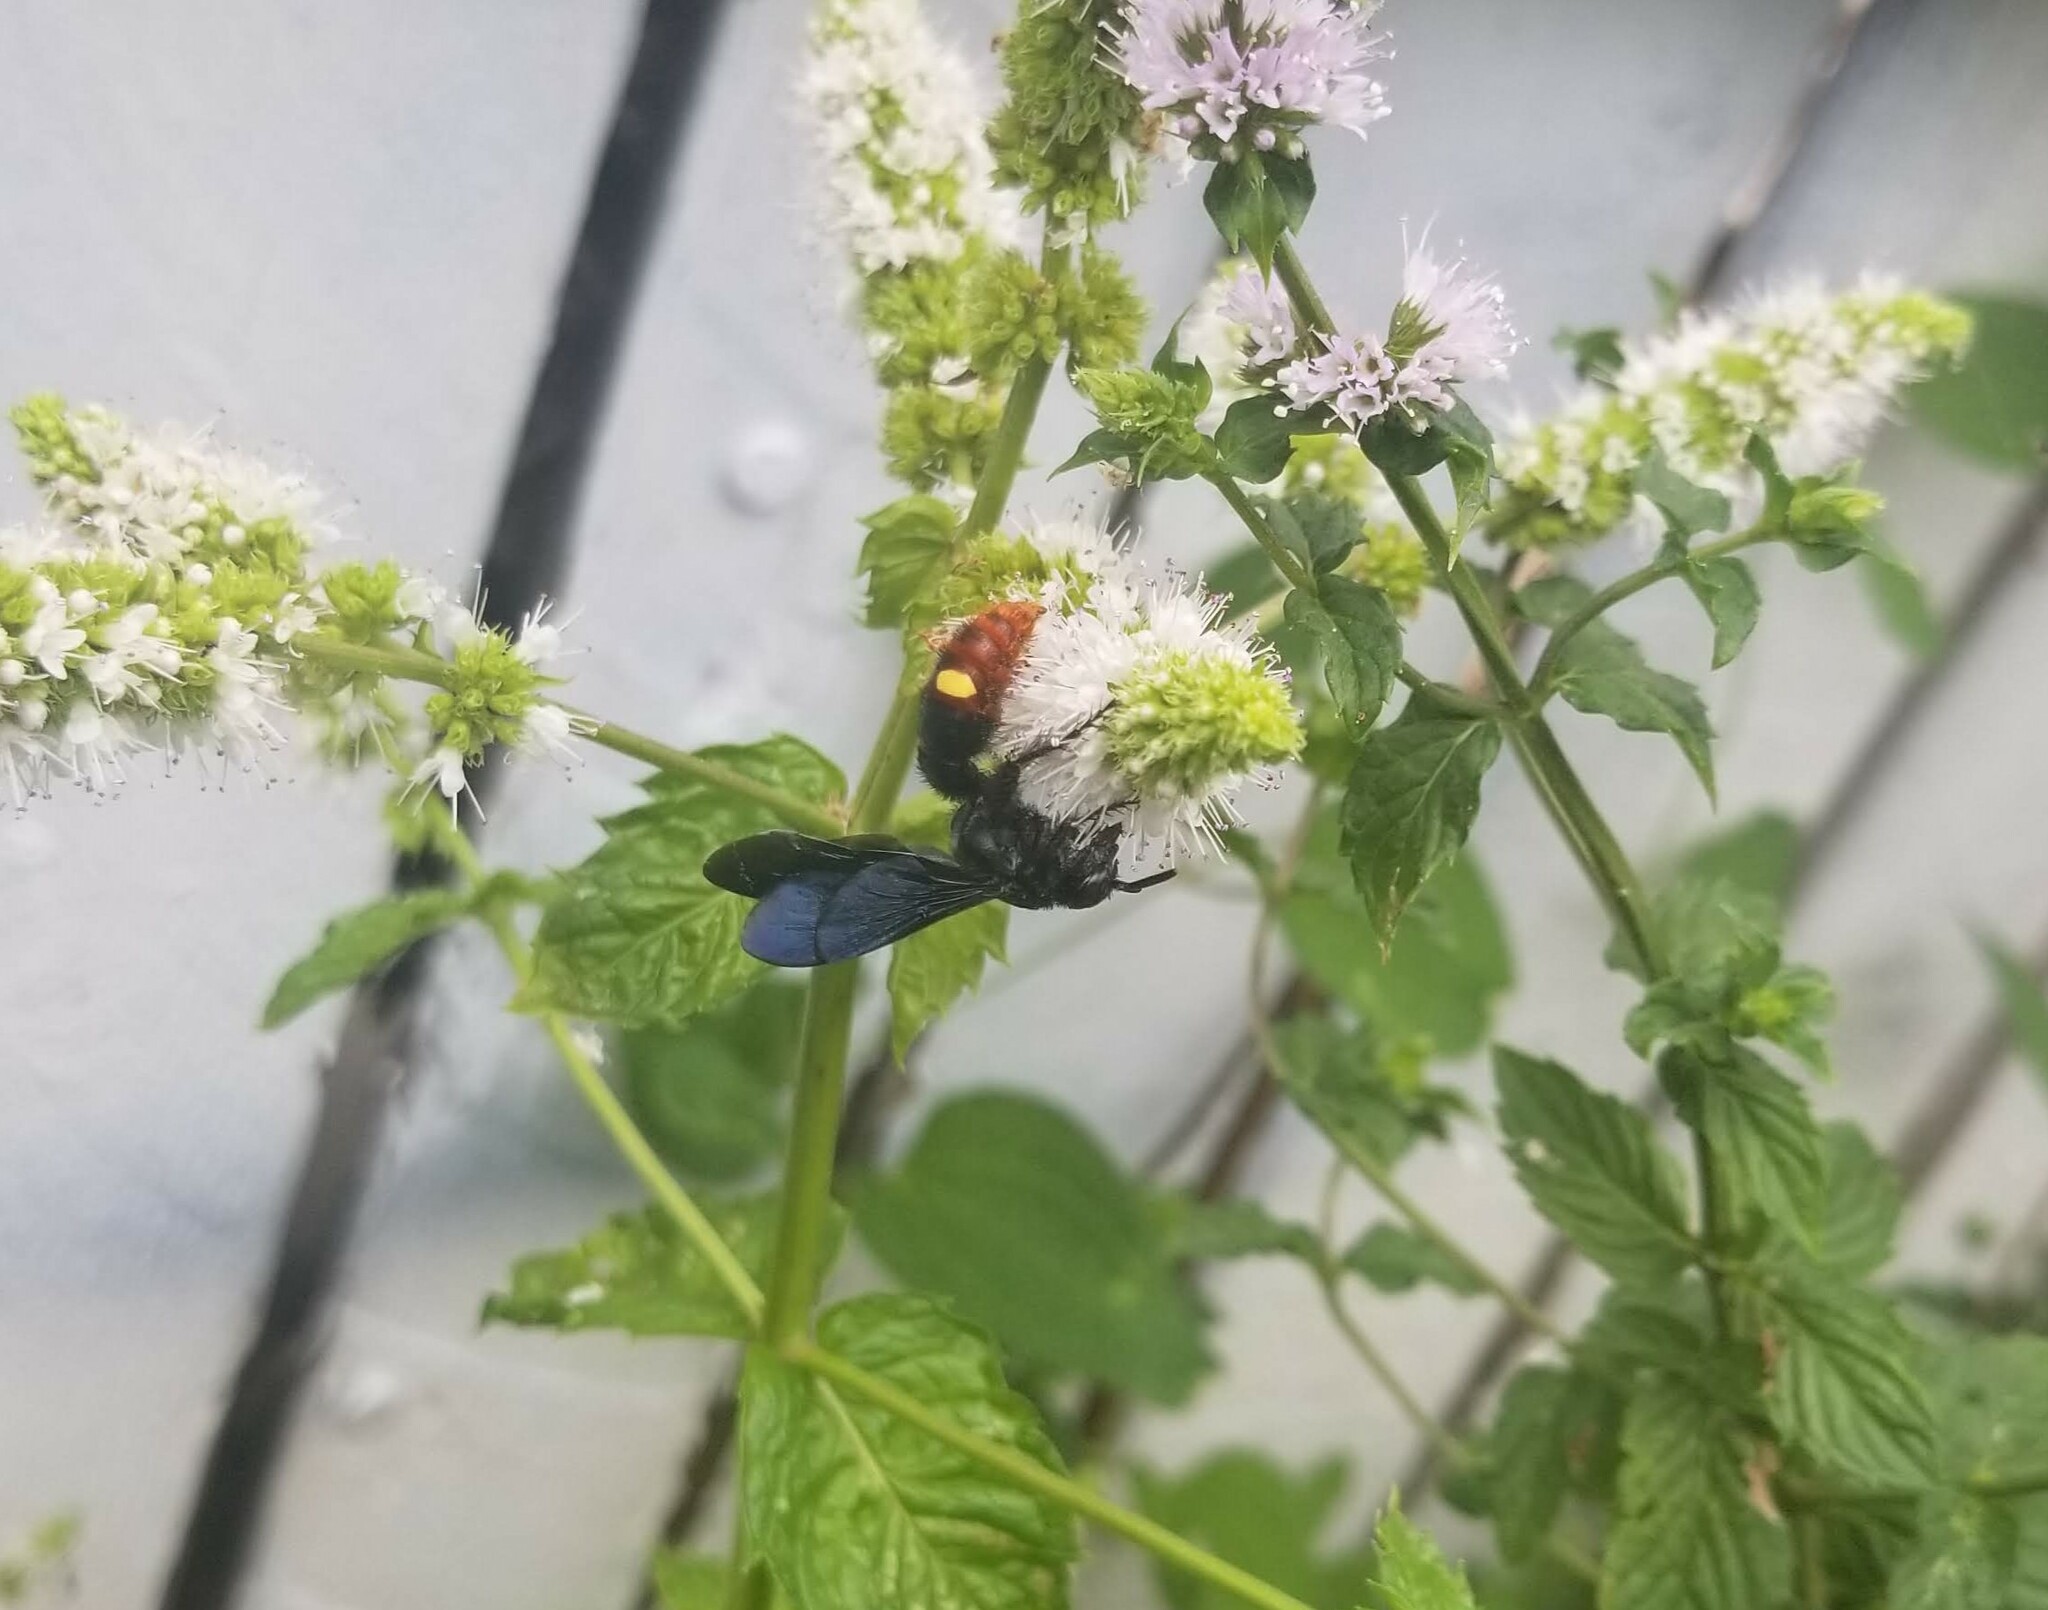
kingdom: Animalia
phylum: Arthropoda
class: Insecta
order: Hymenoptera
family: Scoliidae
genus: Scolia
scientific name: Scolia dubia
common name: Blue-winged scoliid wasp
